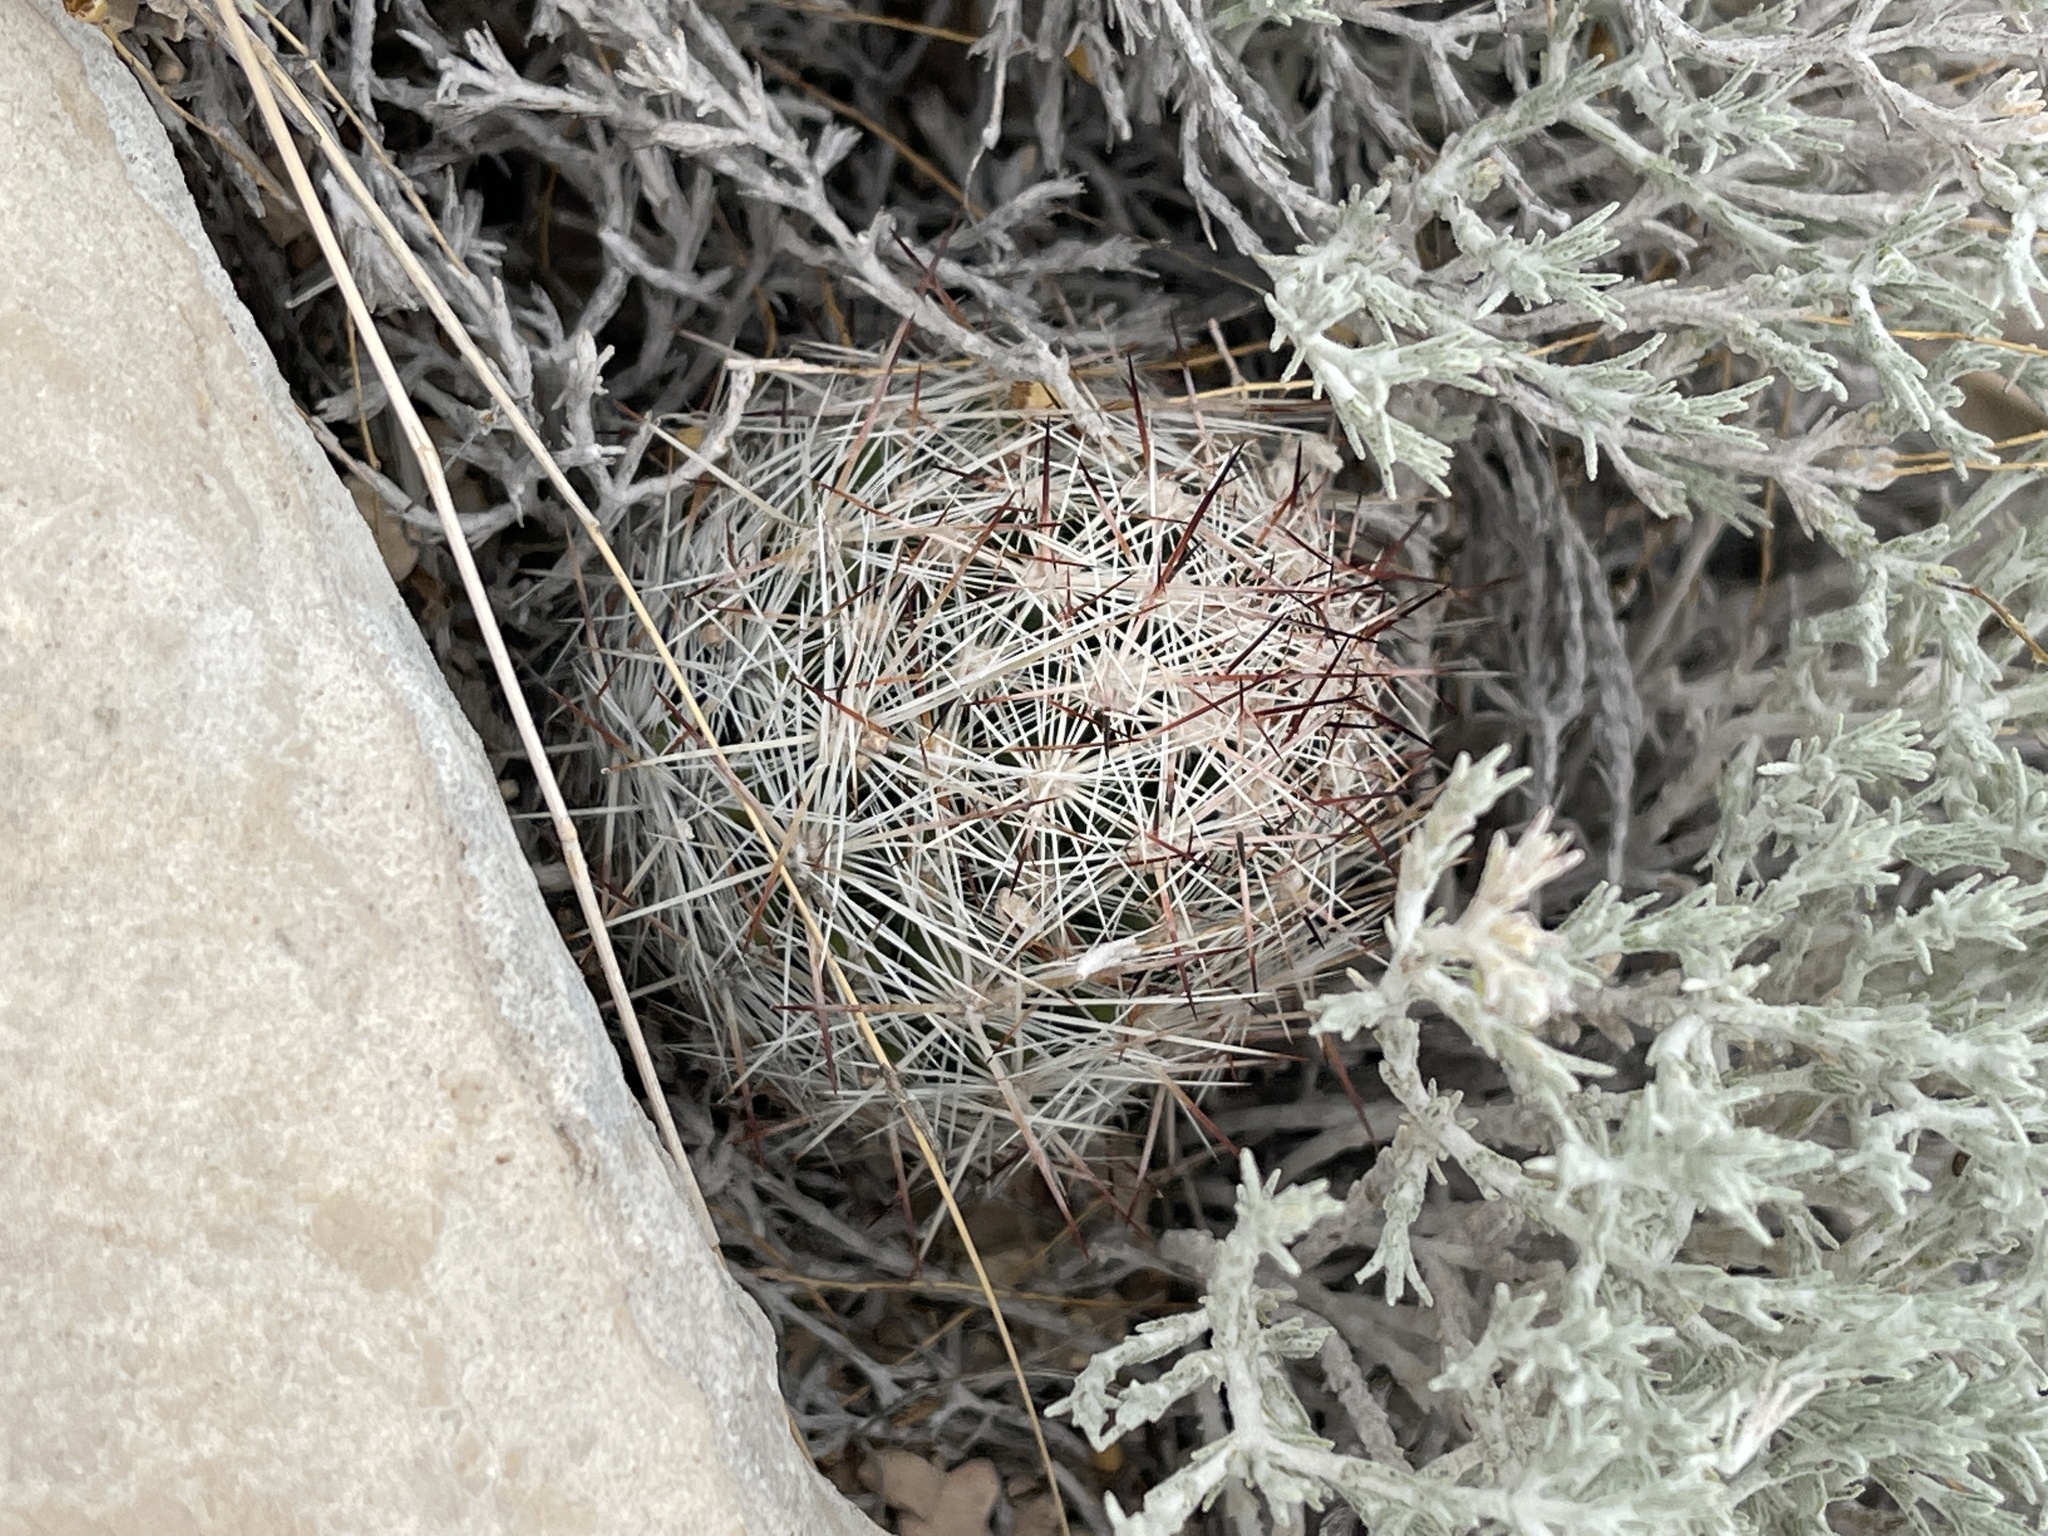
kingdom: Plantae
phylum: Tracheophyta
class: Magnoliopsida
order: Caryophyllales
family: Cactaceae
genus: Pelecyphora
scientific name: Pelecyphora vivipara
